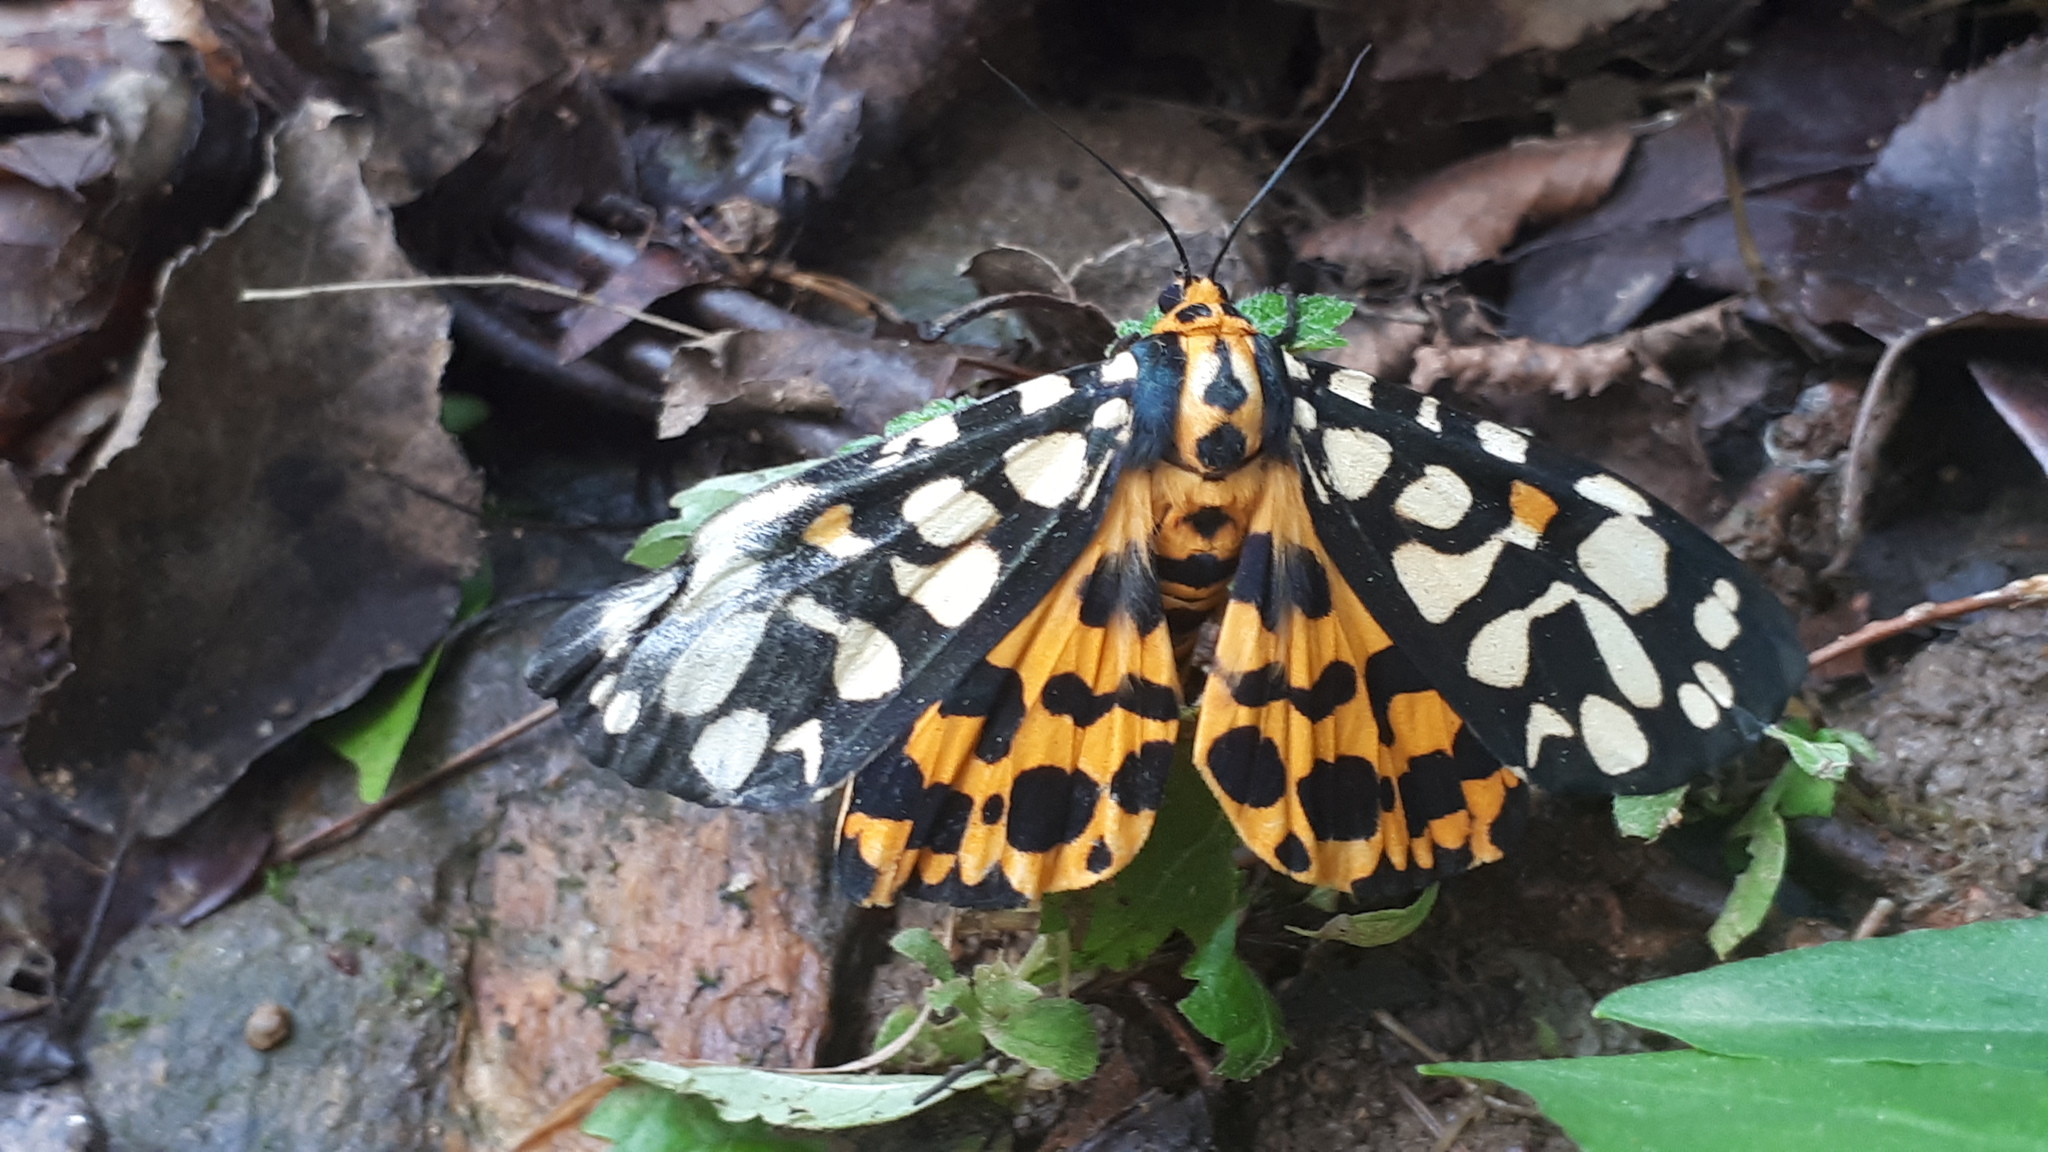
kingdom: Animalia
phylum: Arthropoda
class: Insecta
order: Lepidoptera
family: Erebidae
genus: Aglaomorpha
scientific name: Aglaomorpha histrio
